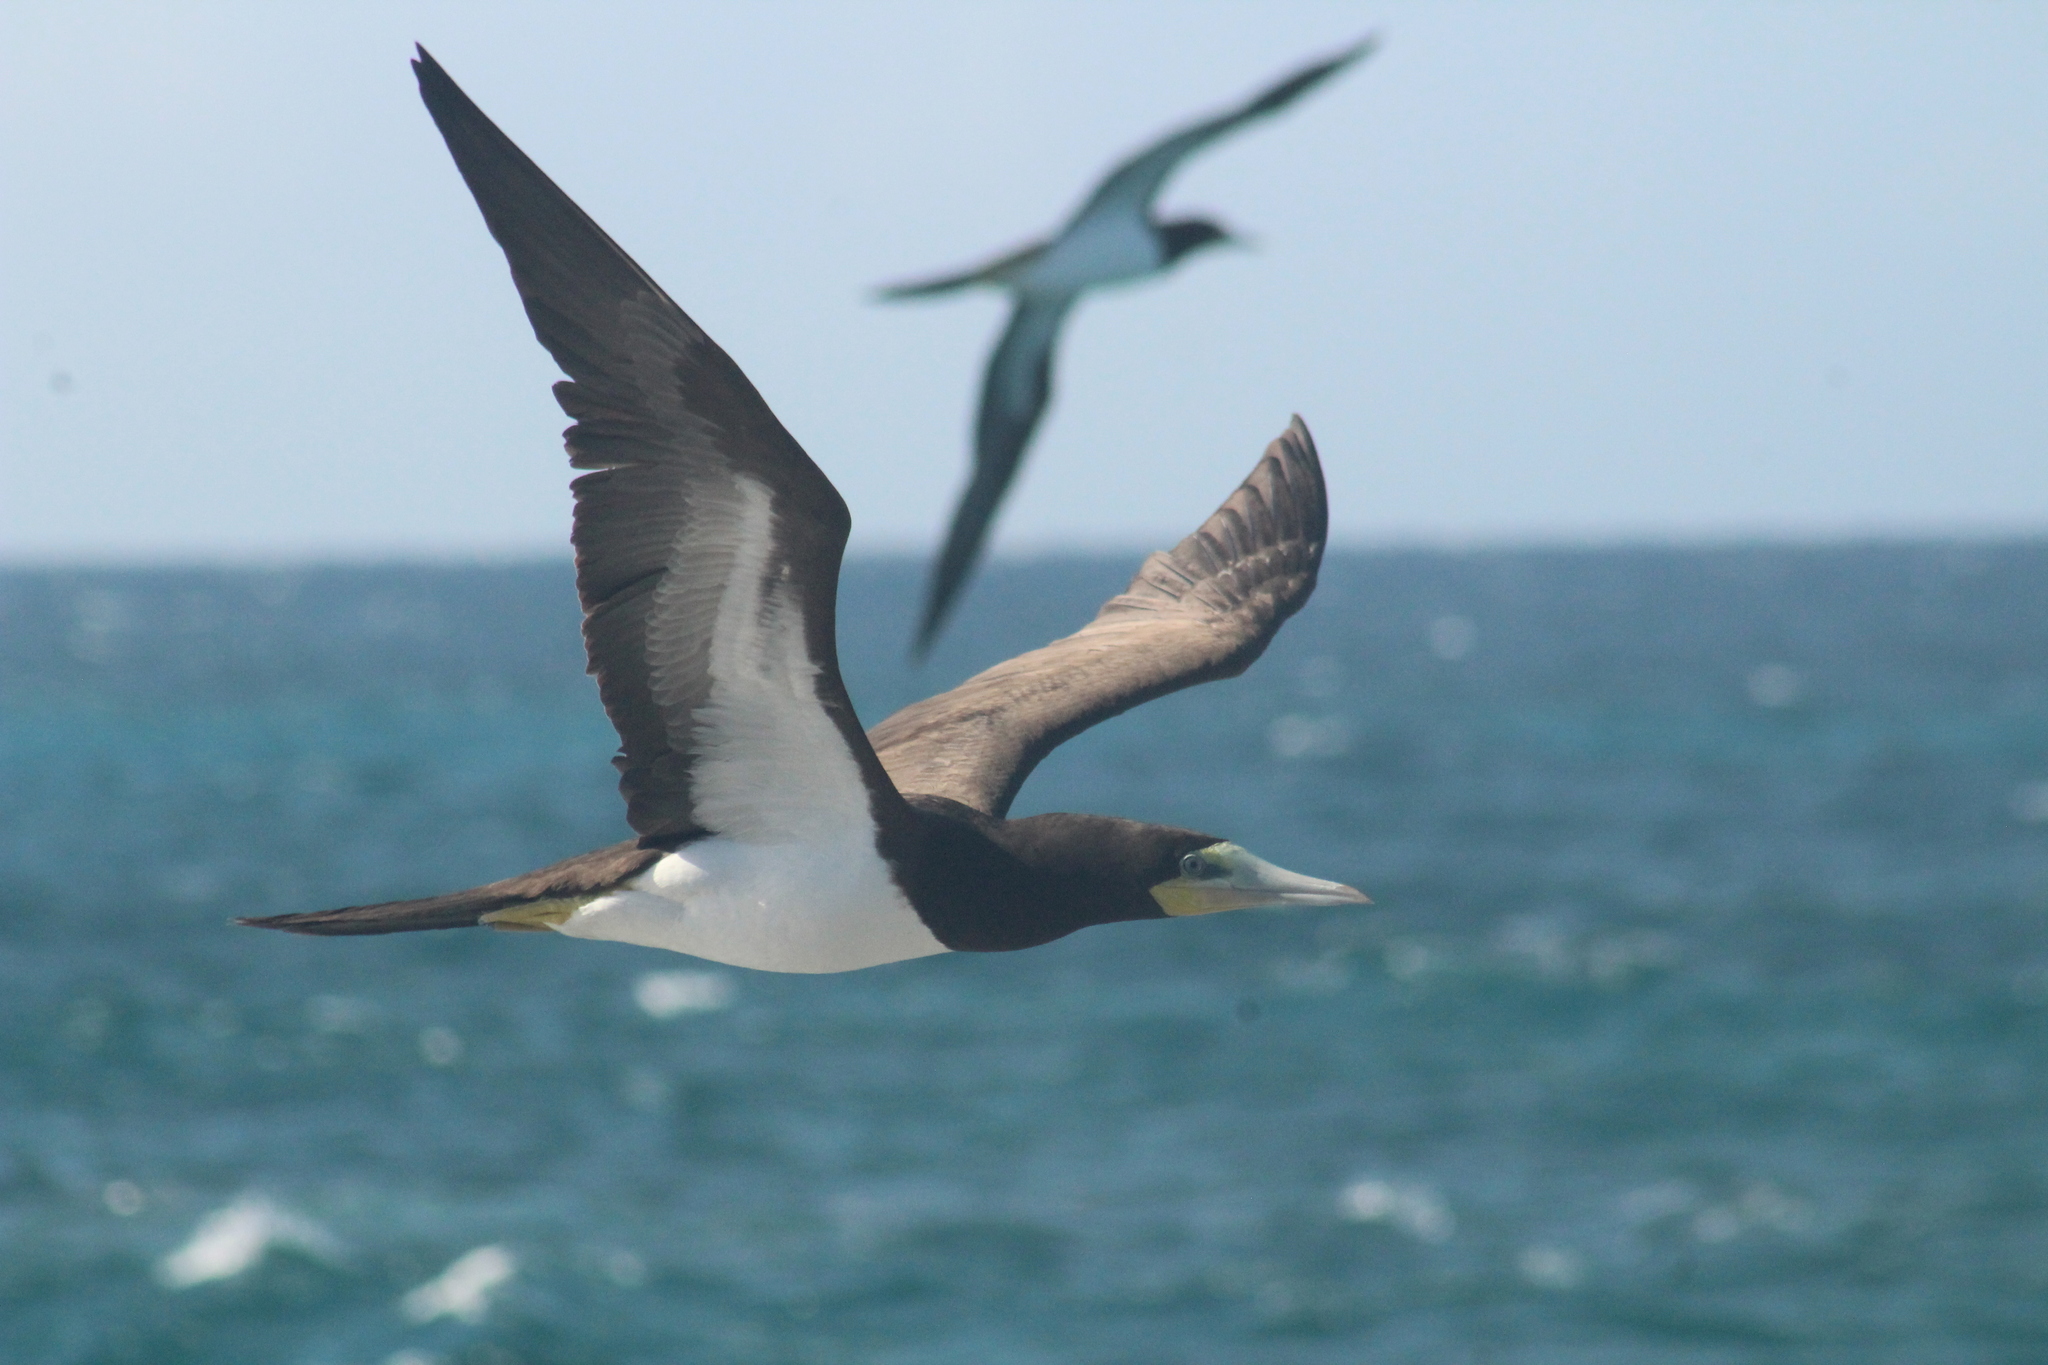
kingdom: Animalia
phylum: Chordata
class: Aves
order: Suliformes
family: Sulidae
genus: Sula
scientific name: Sula leucogaster
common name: Brown booby
